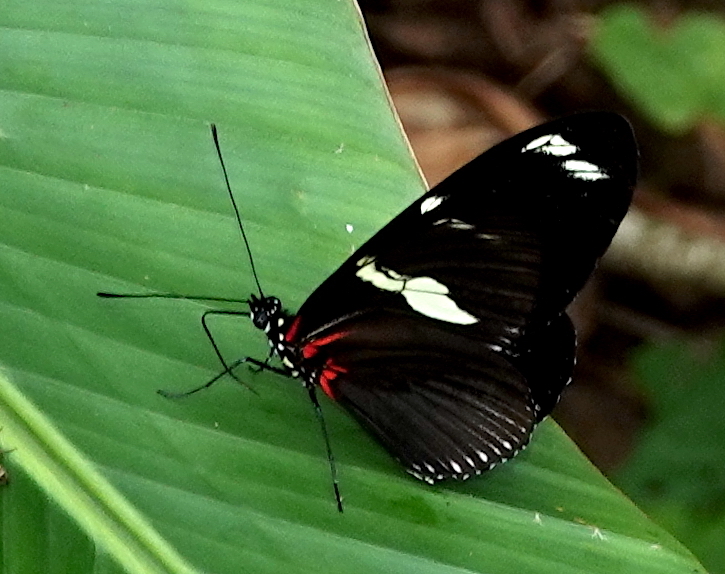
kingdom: Animalia
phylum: Arthropoda
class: Insecta
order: Lepidoptera
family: Nymphalidae
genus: Heliconius
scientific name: Heliconius doris
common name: Doris longwing
